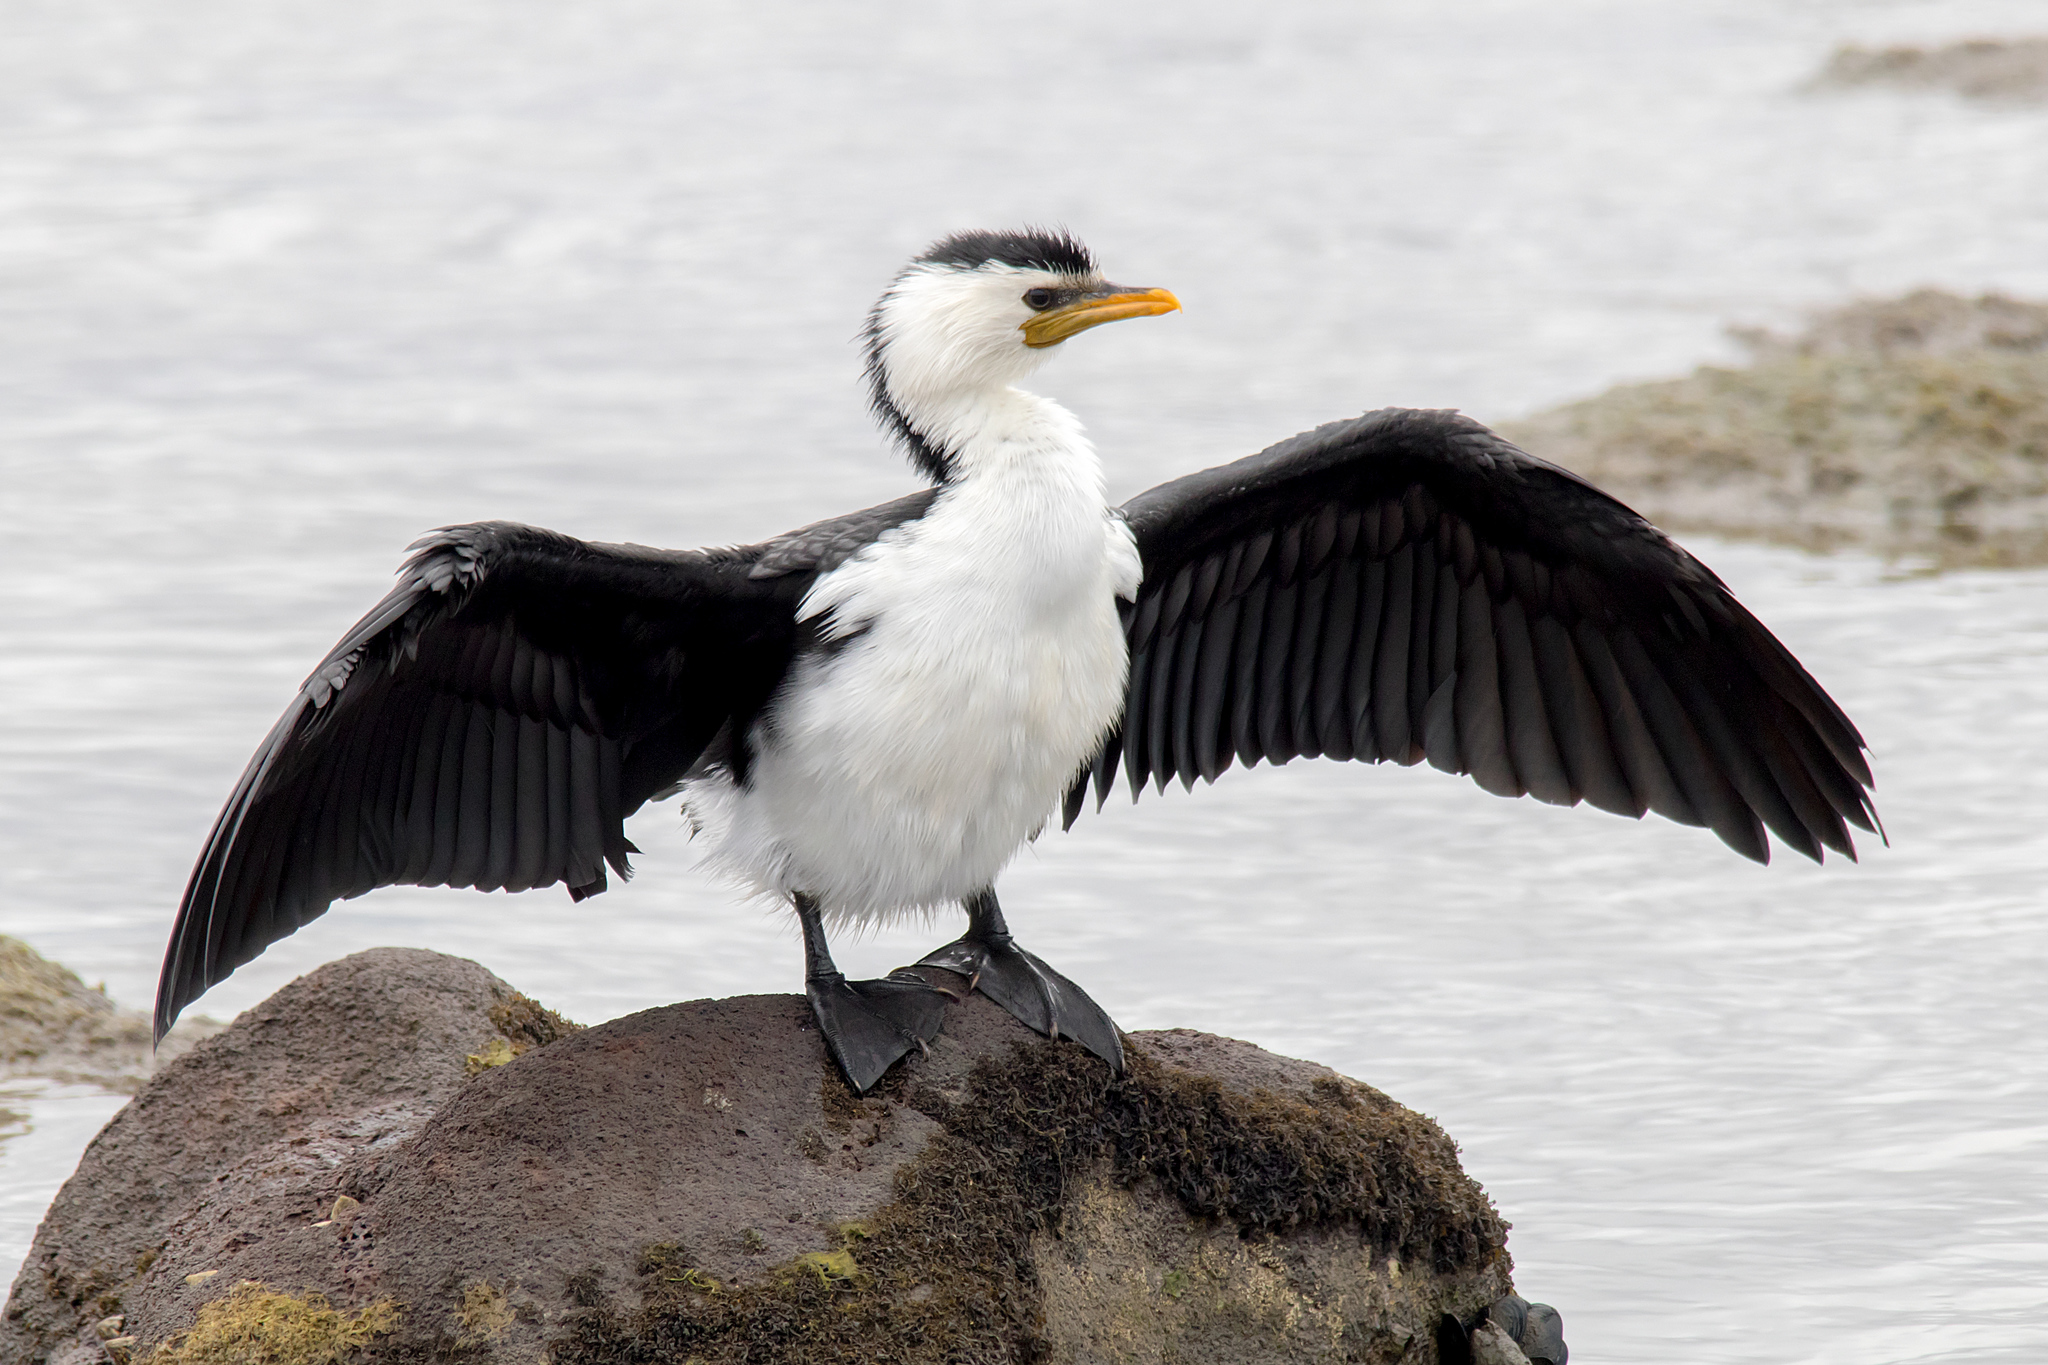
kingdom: Animalia
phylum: Chordata
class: Aves
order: Suliformes
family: Phalacrocoracidae
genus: Microcarbo
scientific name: Microcarbo melanoleucos
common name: Little pied cormorant
